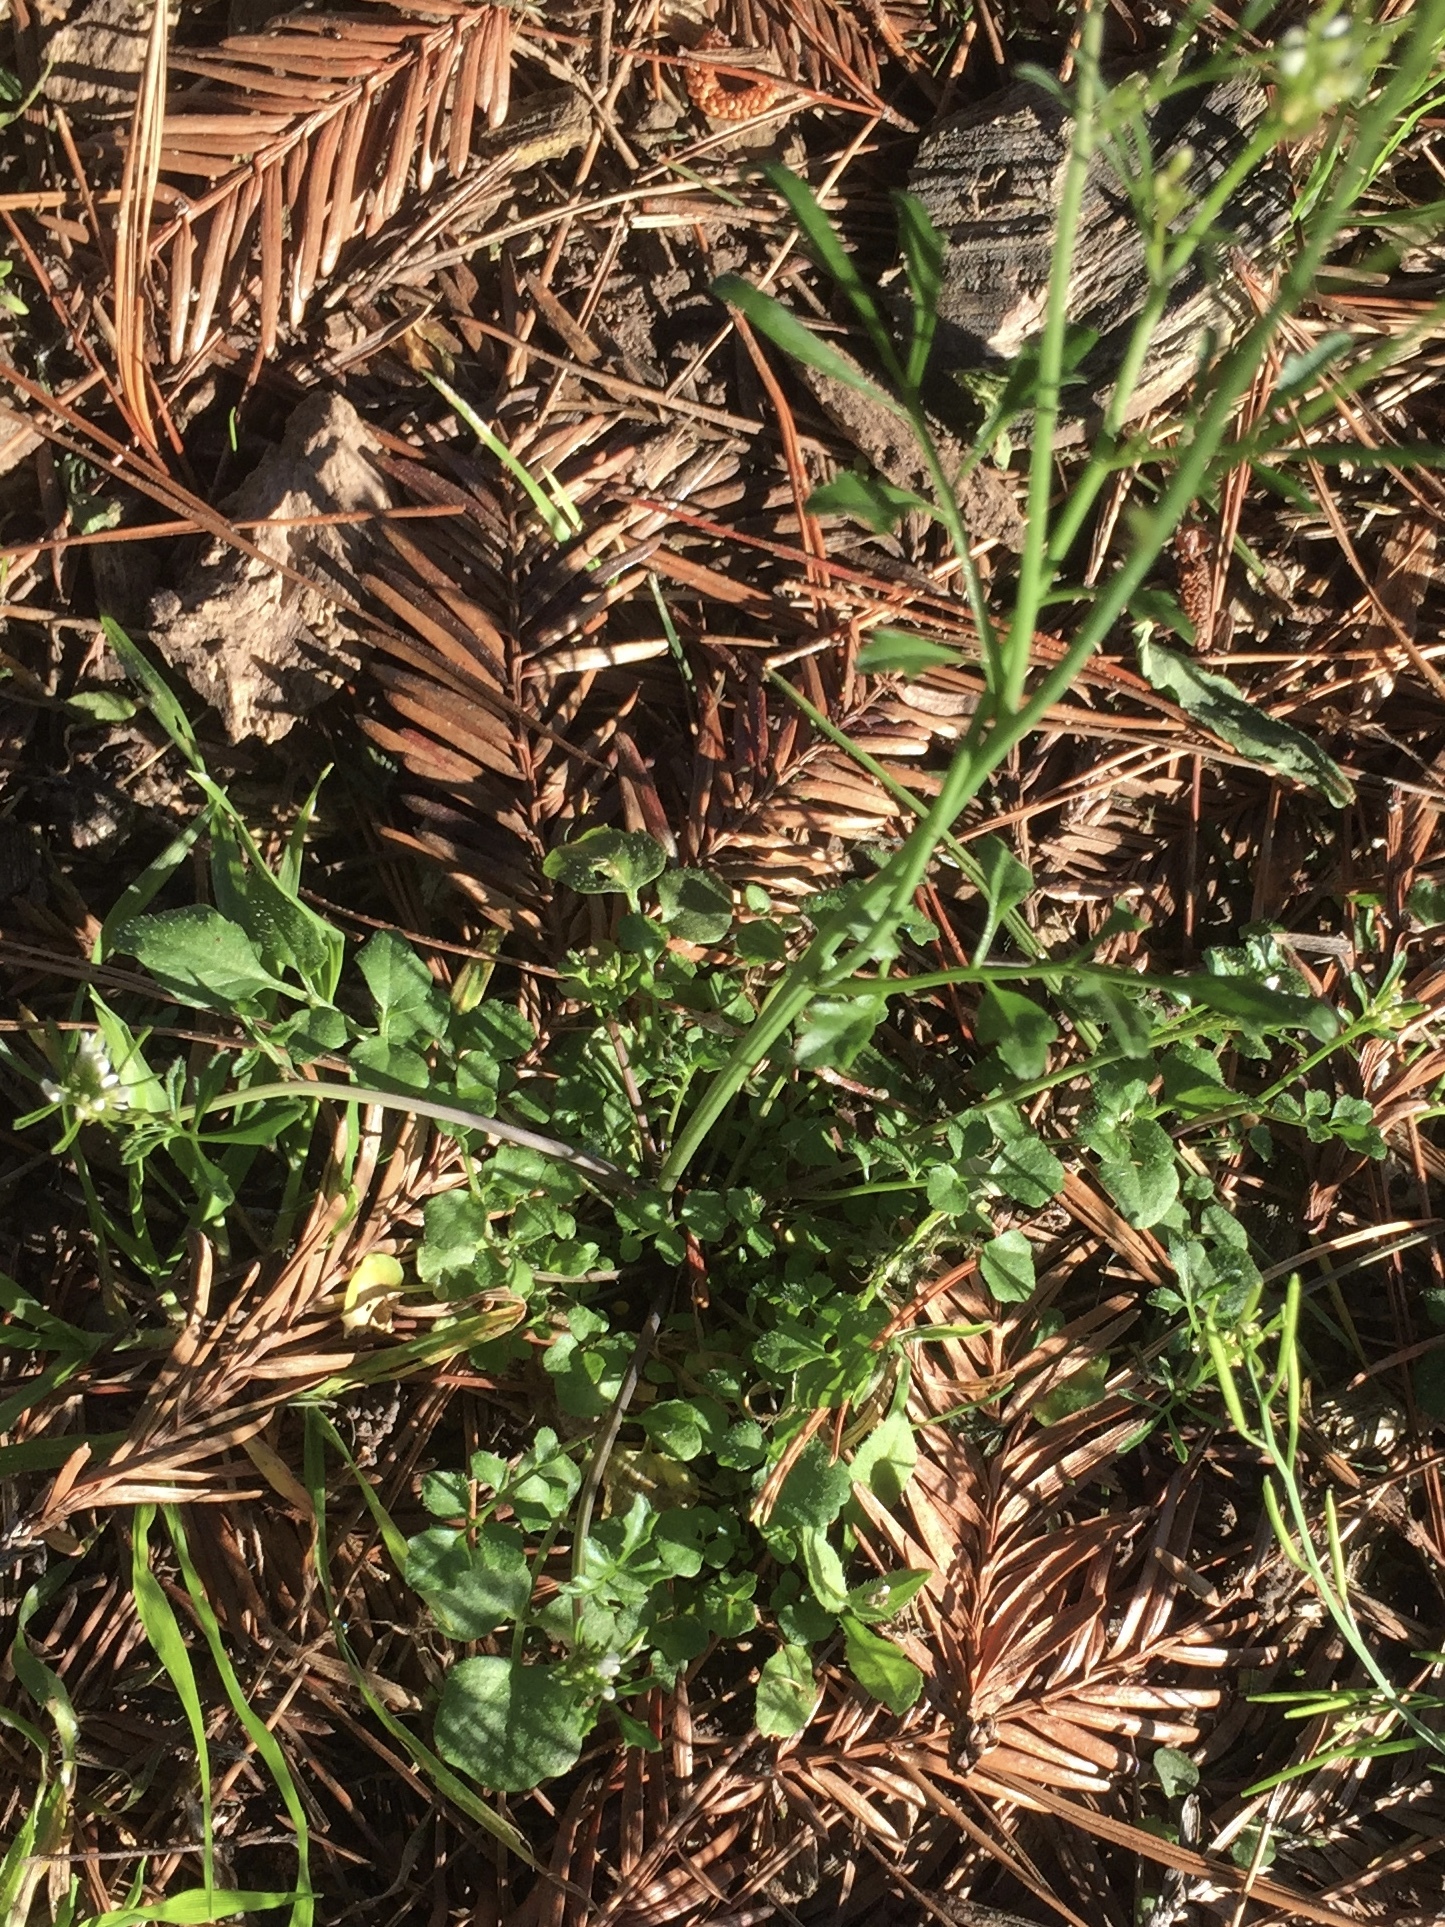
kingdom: Plantae
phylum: Tracheophyta
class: Magnoliopsida
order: Brassicales
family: Brassicaceae
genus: Cardamine
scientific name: Cardamine hirsuta
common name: Hairy bittercress
